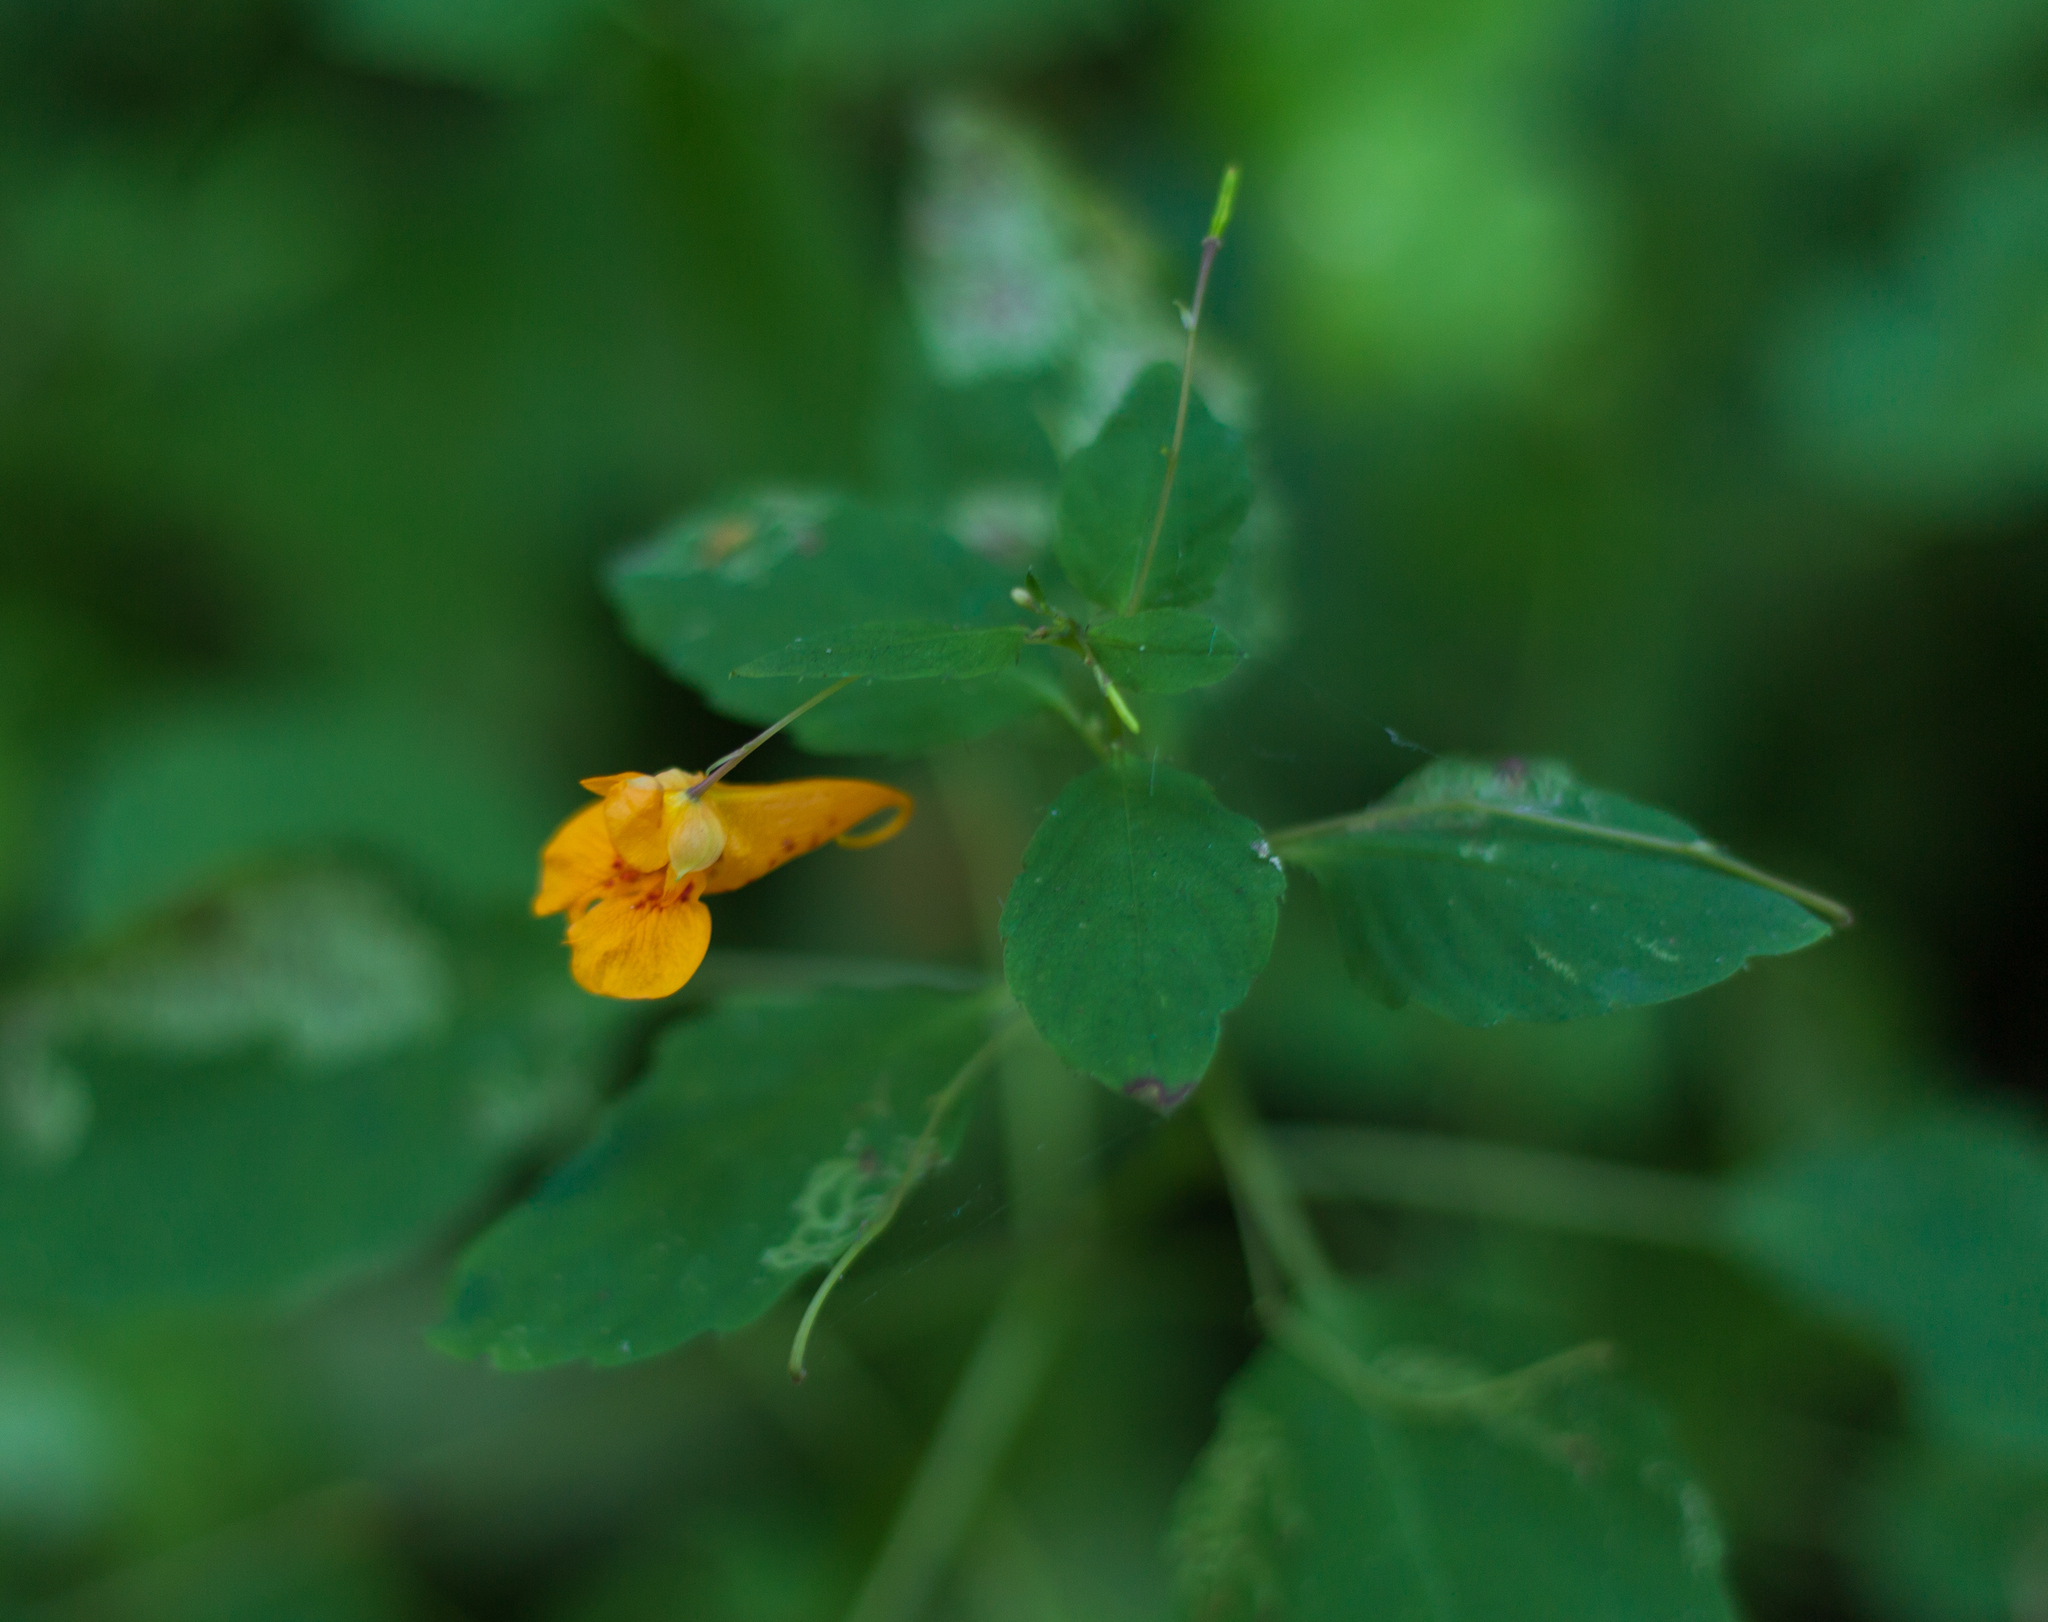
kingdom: Plantae
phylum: Tracheophyta
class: Magnoliopsida
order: Ericales
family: Balsaminaceae
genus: Impatiens
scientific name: Impatiens capensis
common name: Orange balsam
